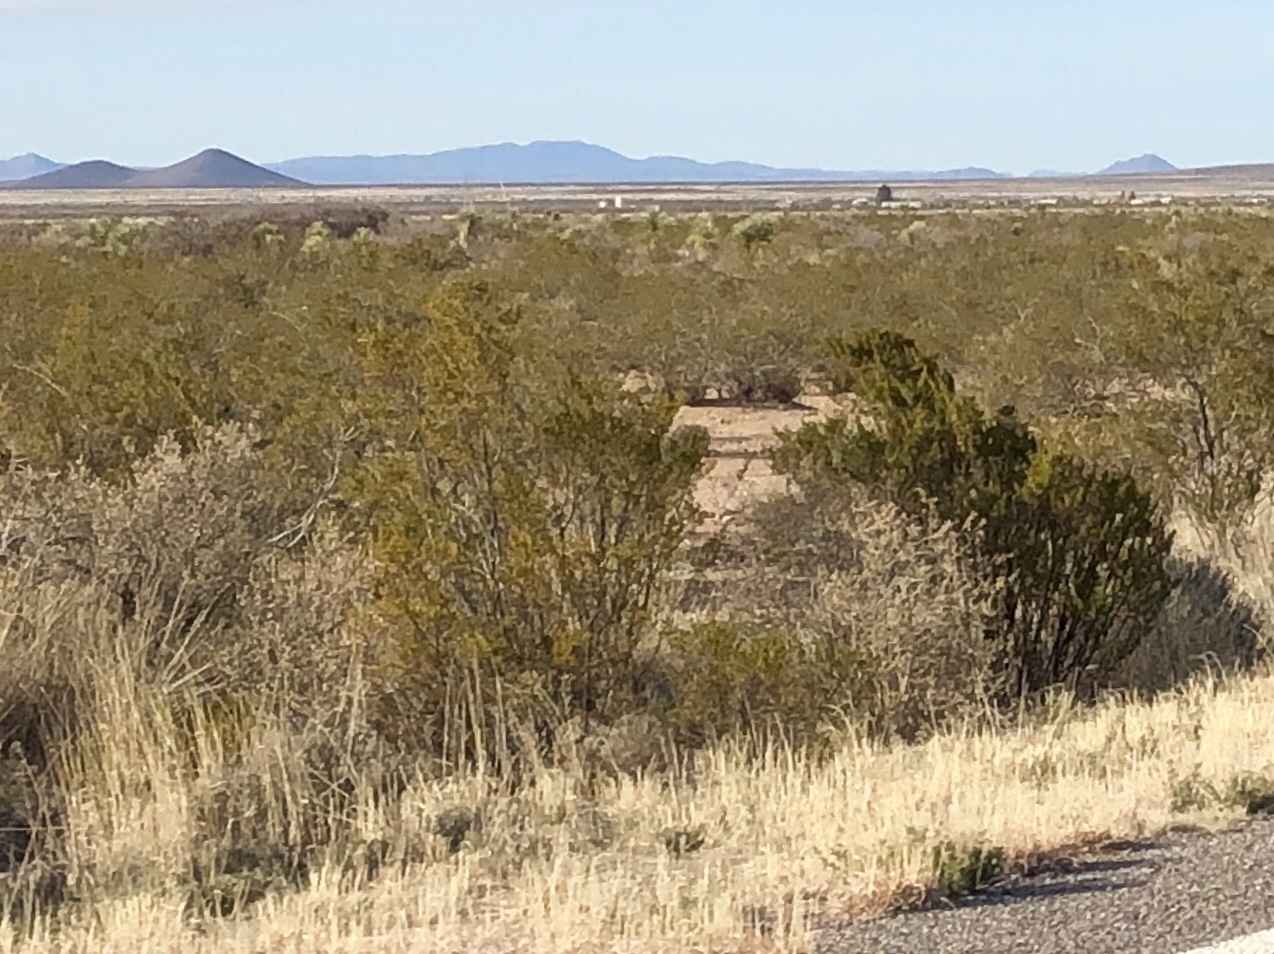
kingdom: Plantae
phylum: Tracheophyta
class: Magnoliopsida
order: Zygophyllales
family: Zygophyllaceae
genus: Larrea
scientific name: Larrea tridentata
